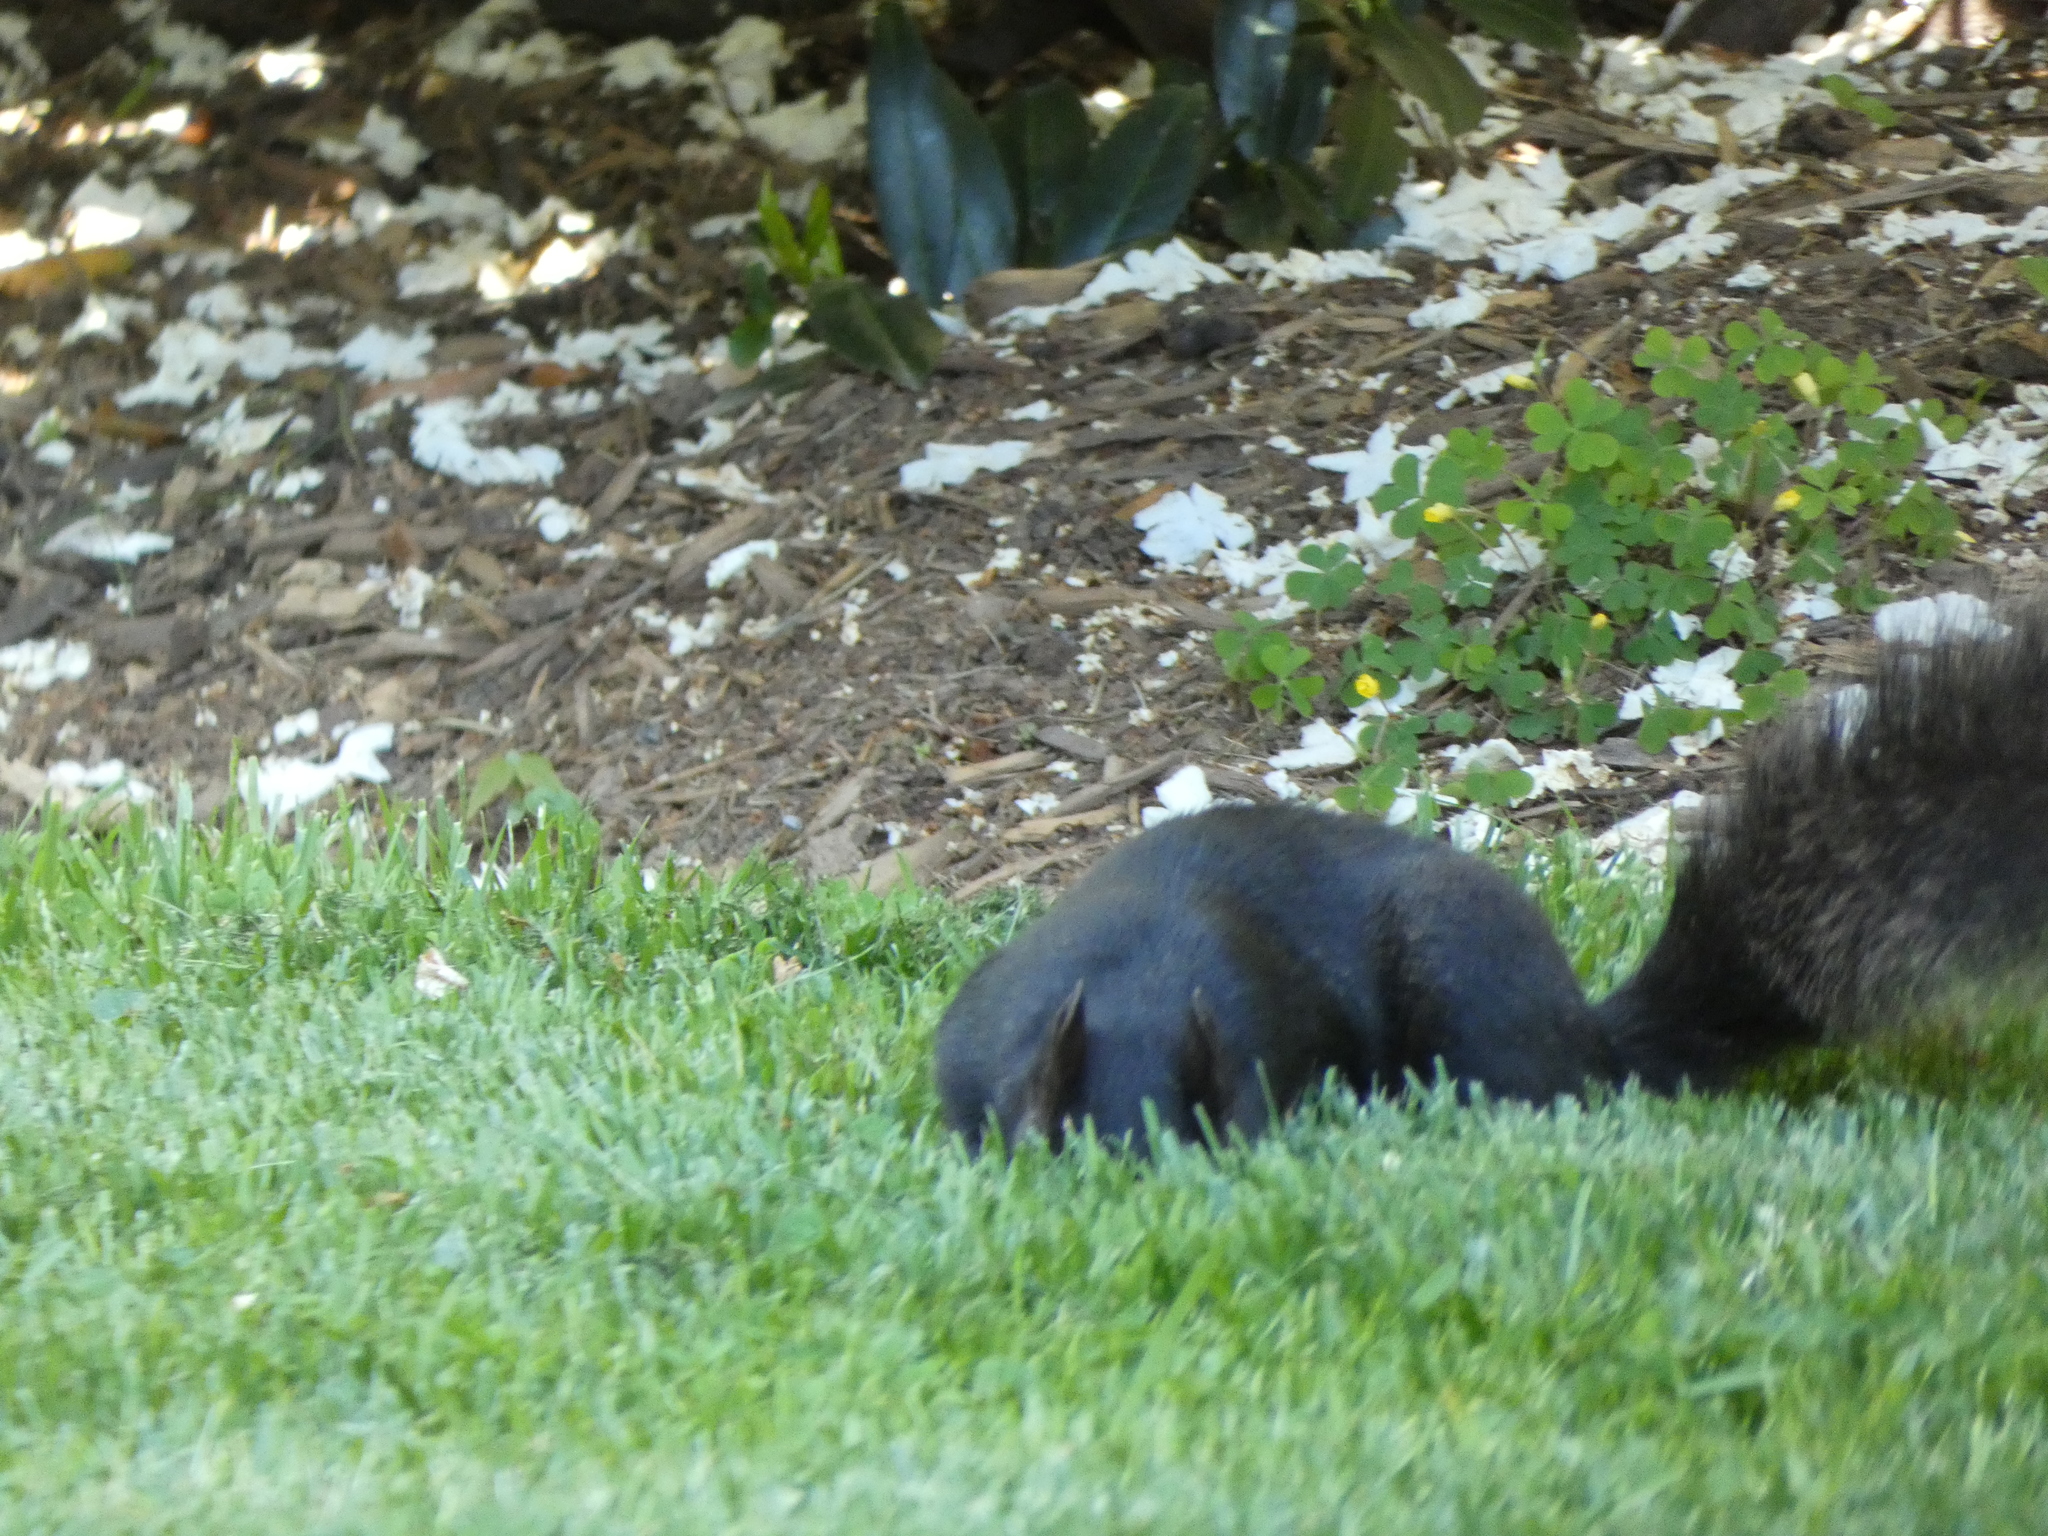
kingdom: Animalia
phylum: Chordata
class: Mammalia
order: Rodentia
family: Sciuridae
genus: Sciurus
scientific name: Sciurus carolinensis
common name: Eastern gray squirrel
